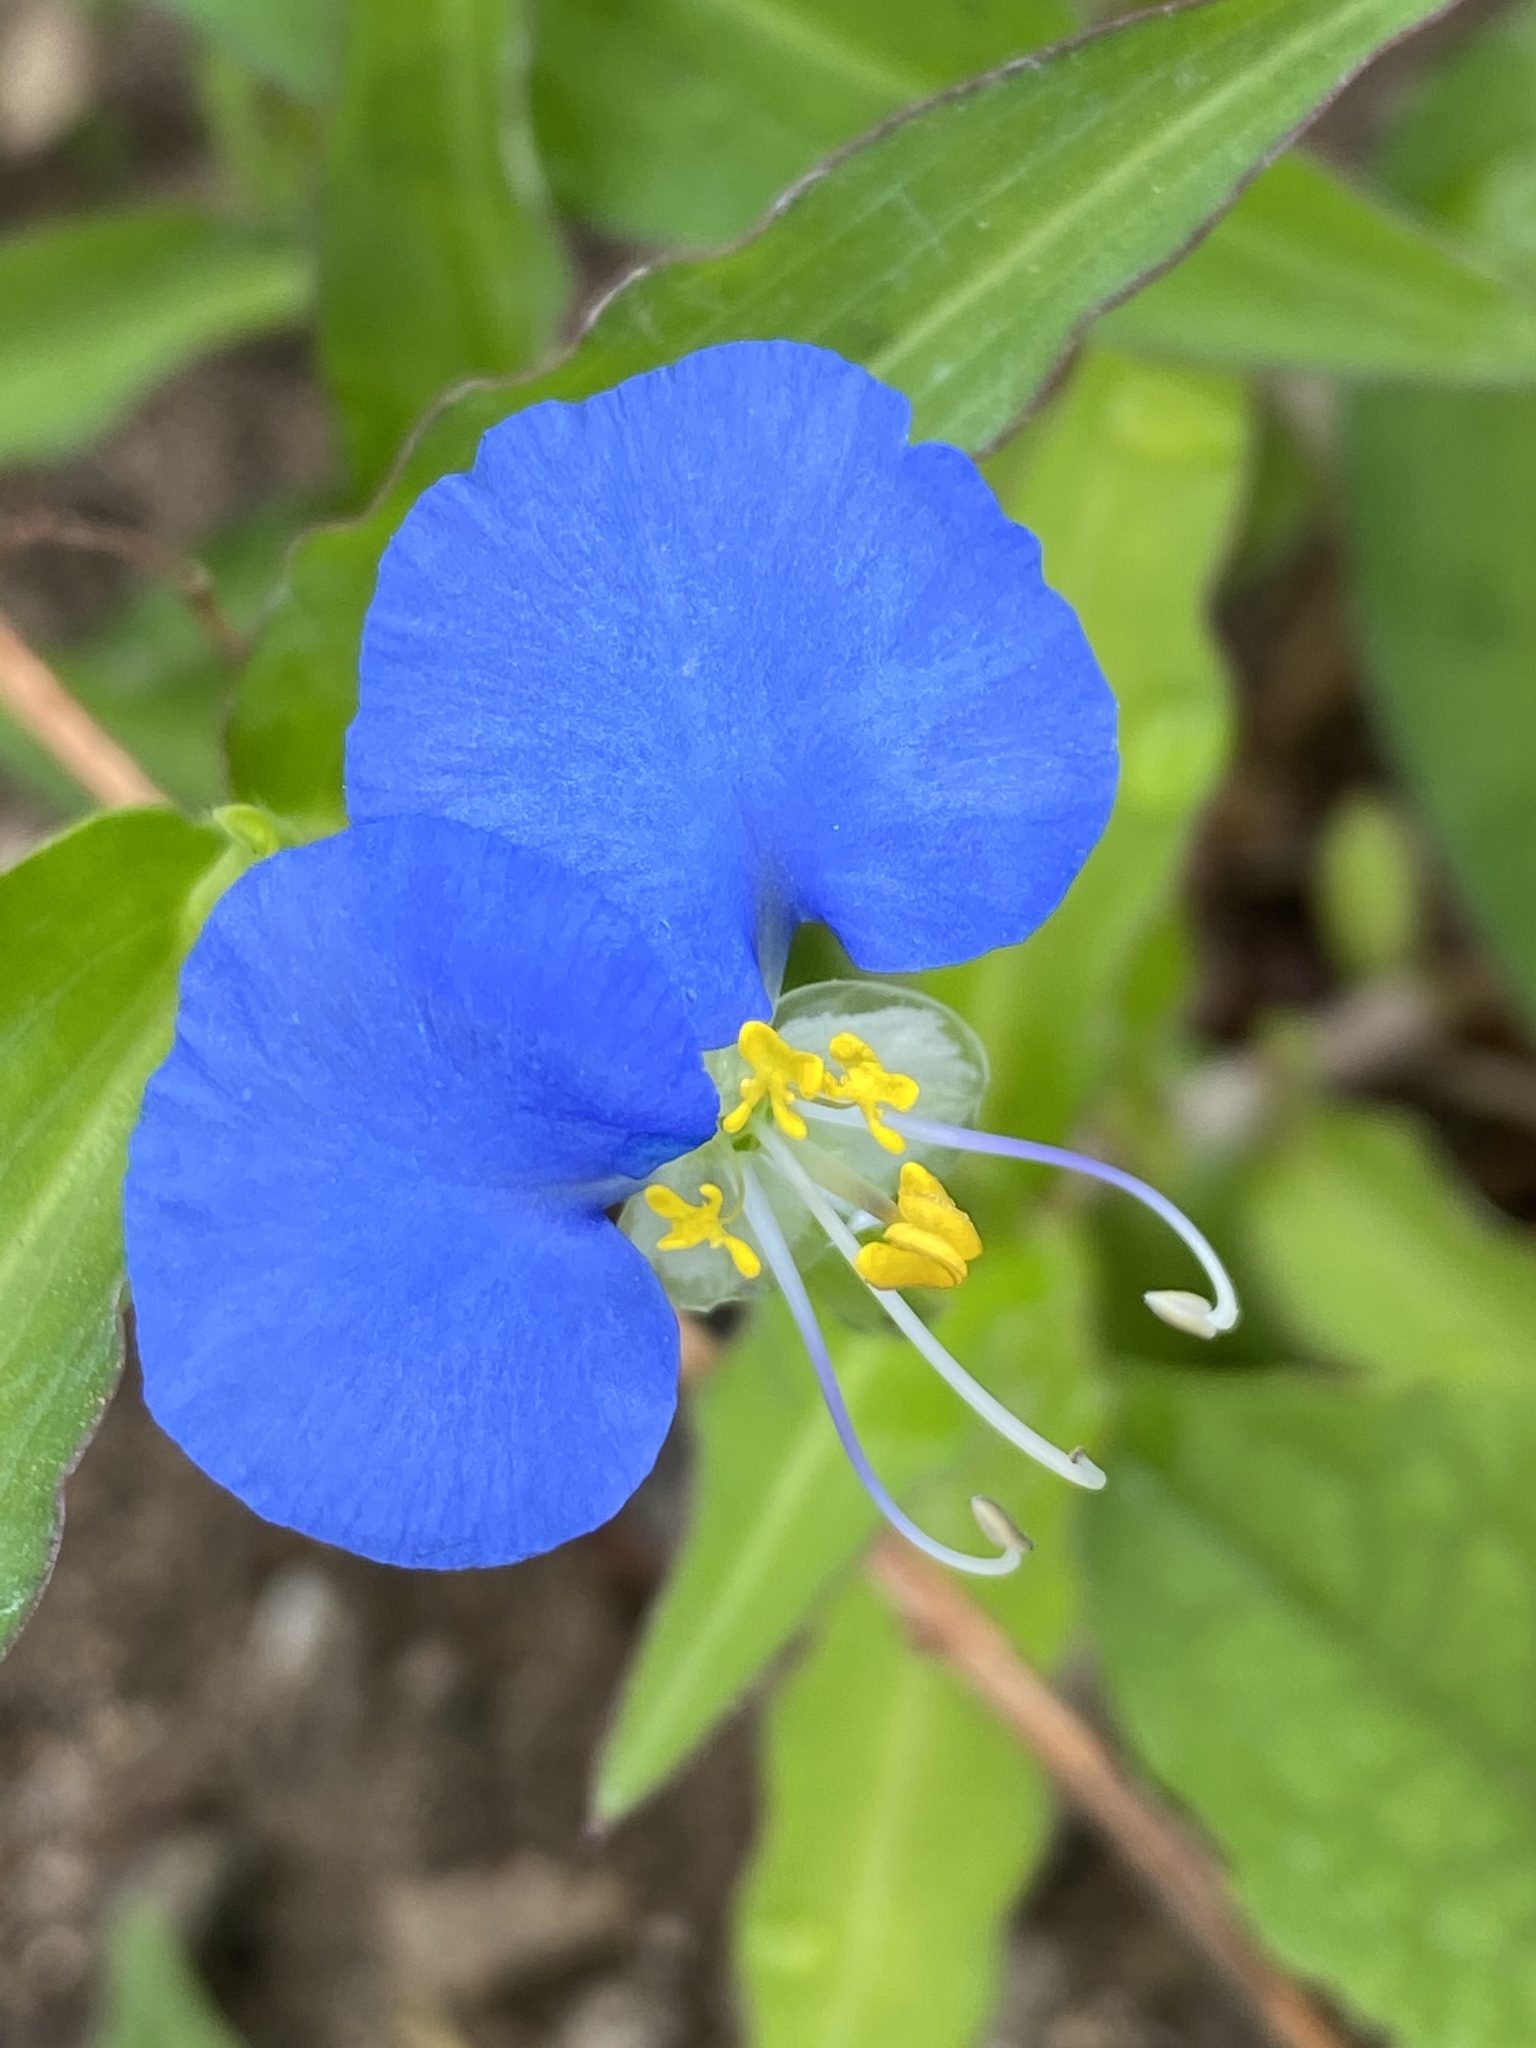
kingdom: Plantae
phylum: Tracheophyta
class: Liliopsida
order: Commelinales
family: Commelinaceae
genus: Commelina
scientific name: Commelina erecta
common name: Blousel blommetjie
